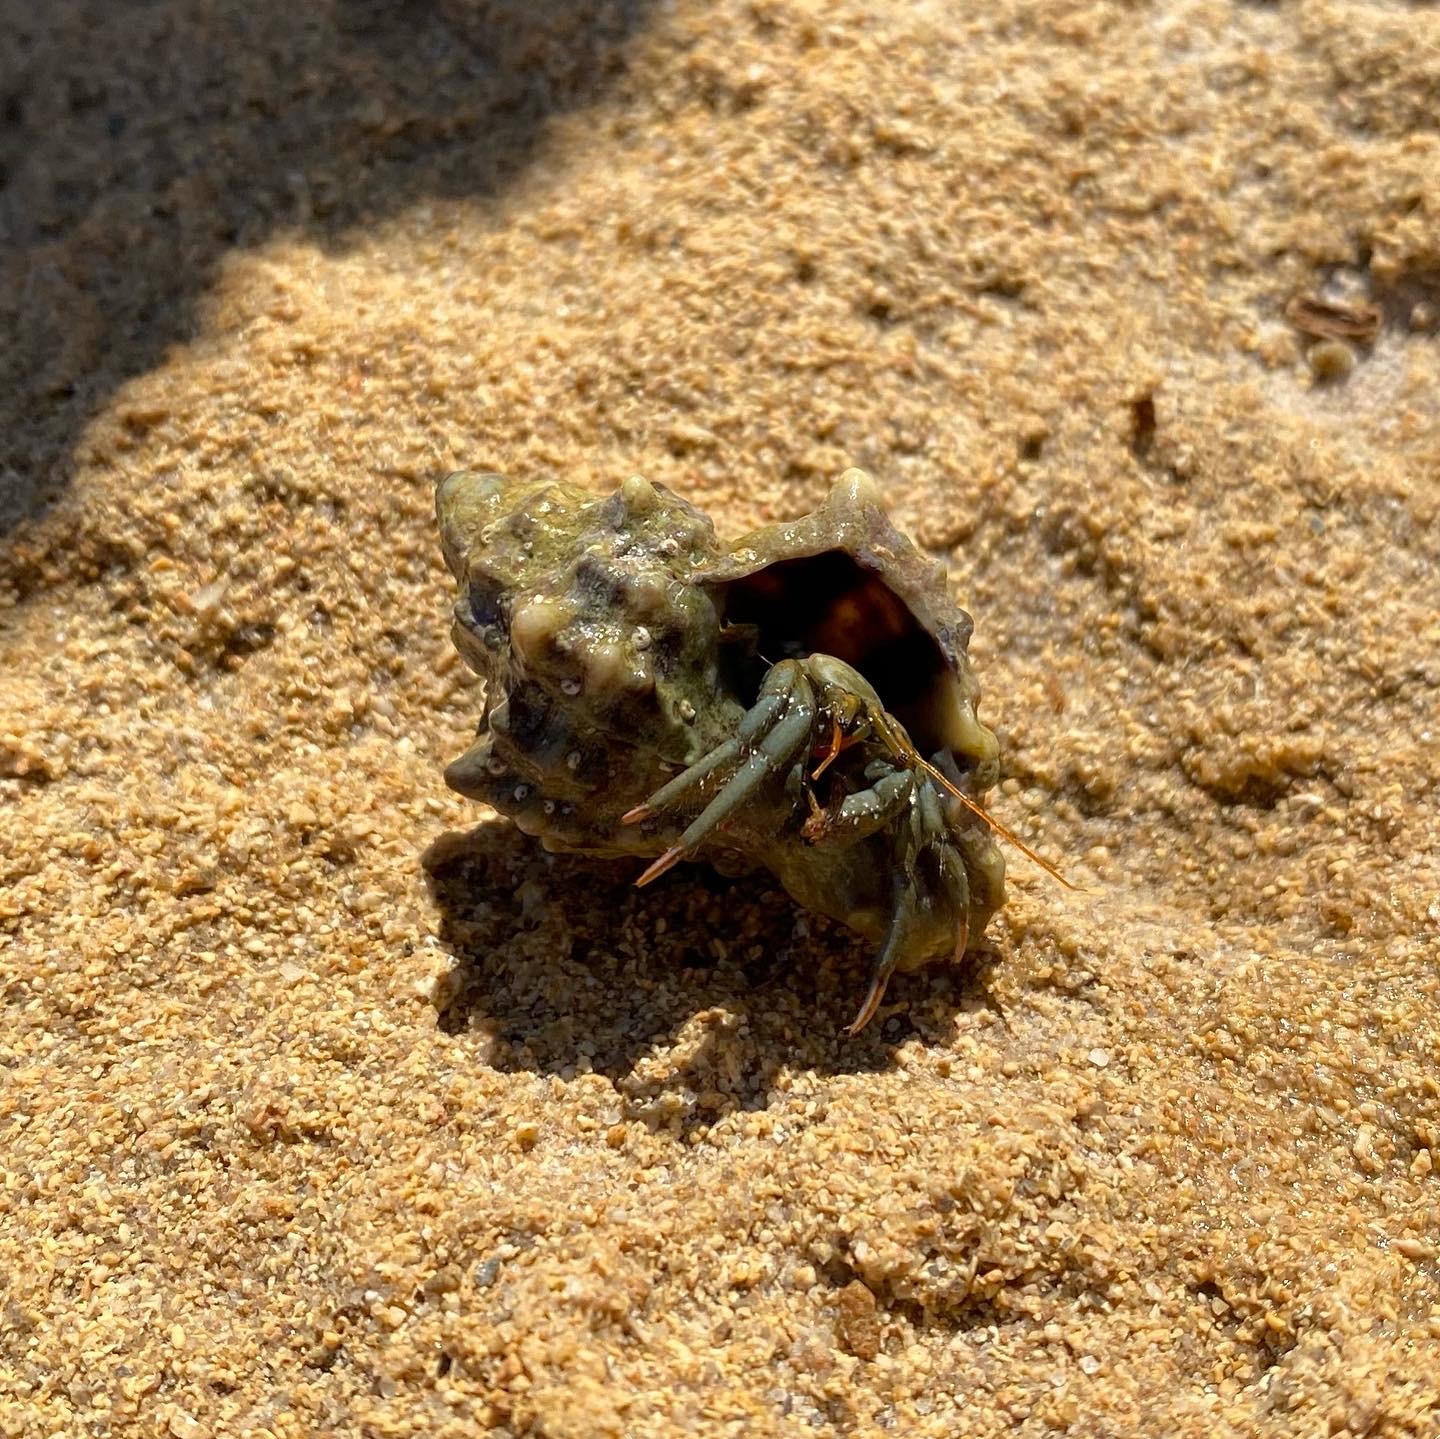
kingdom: Animalia
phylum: Arthropoda
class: Malacostraca
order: Decapoda
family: Diogenidae
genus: Clibanarius
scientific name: Clibanarius erythropus
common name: Hermit crab
